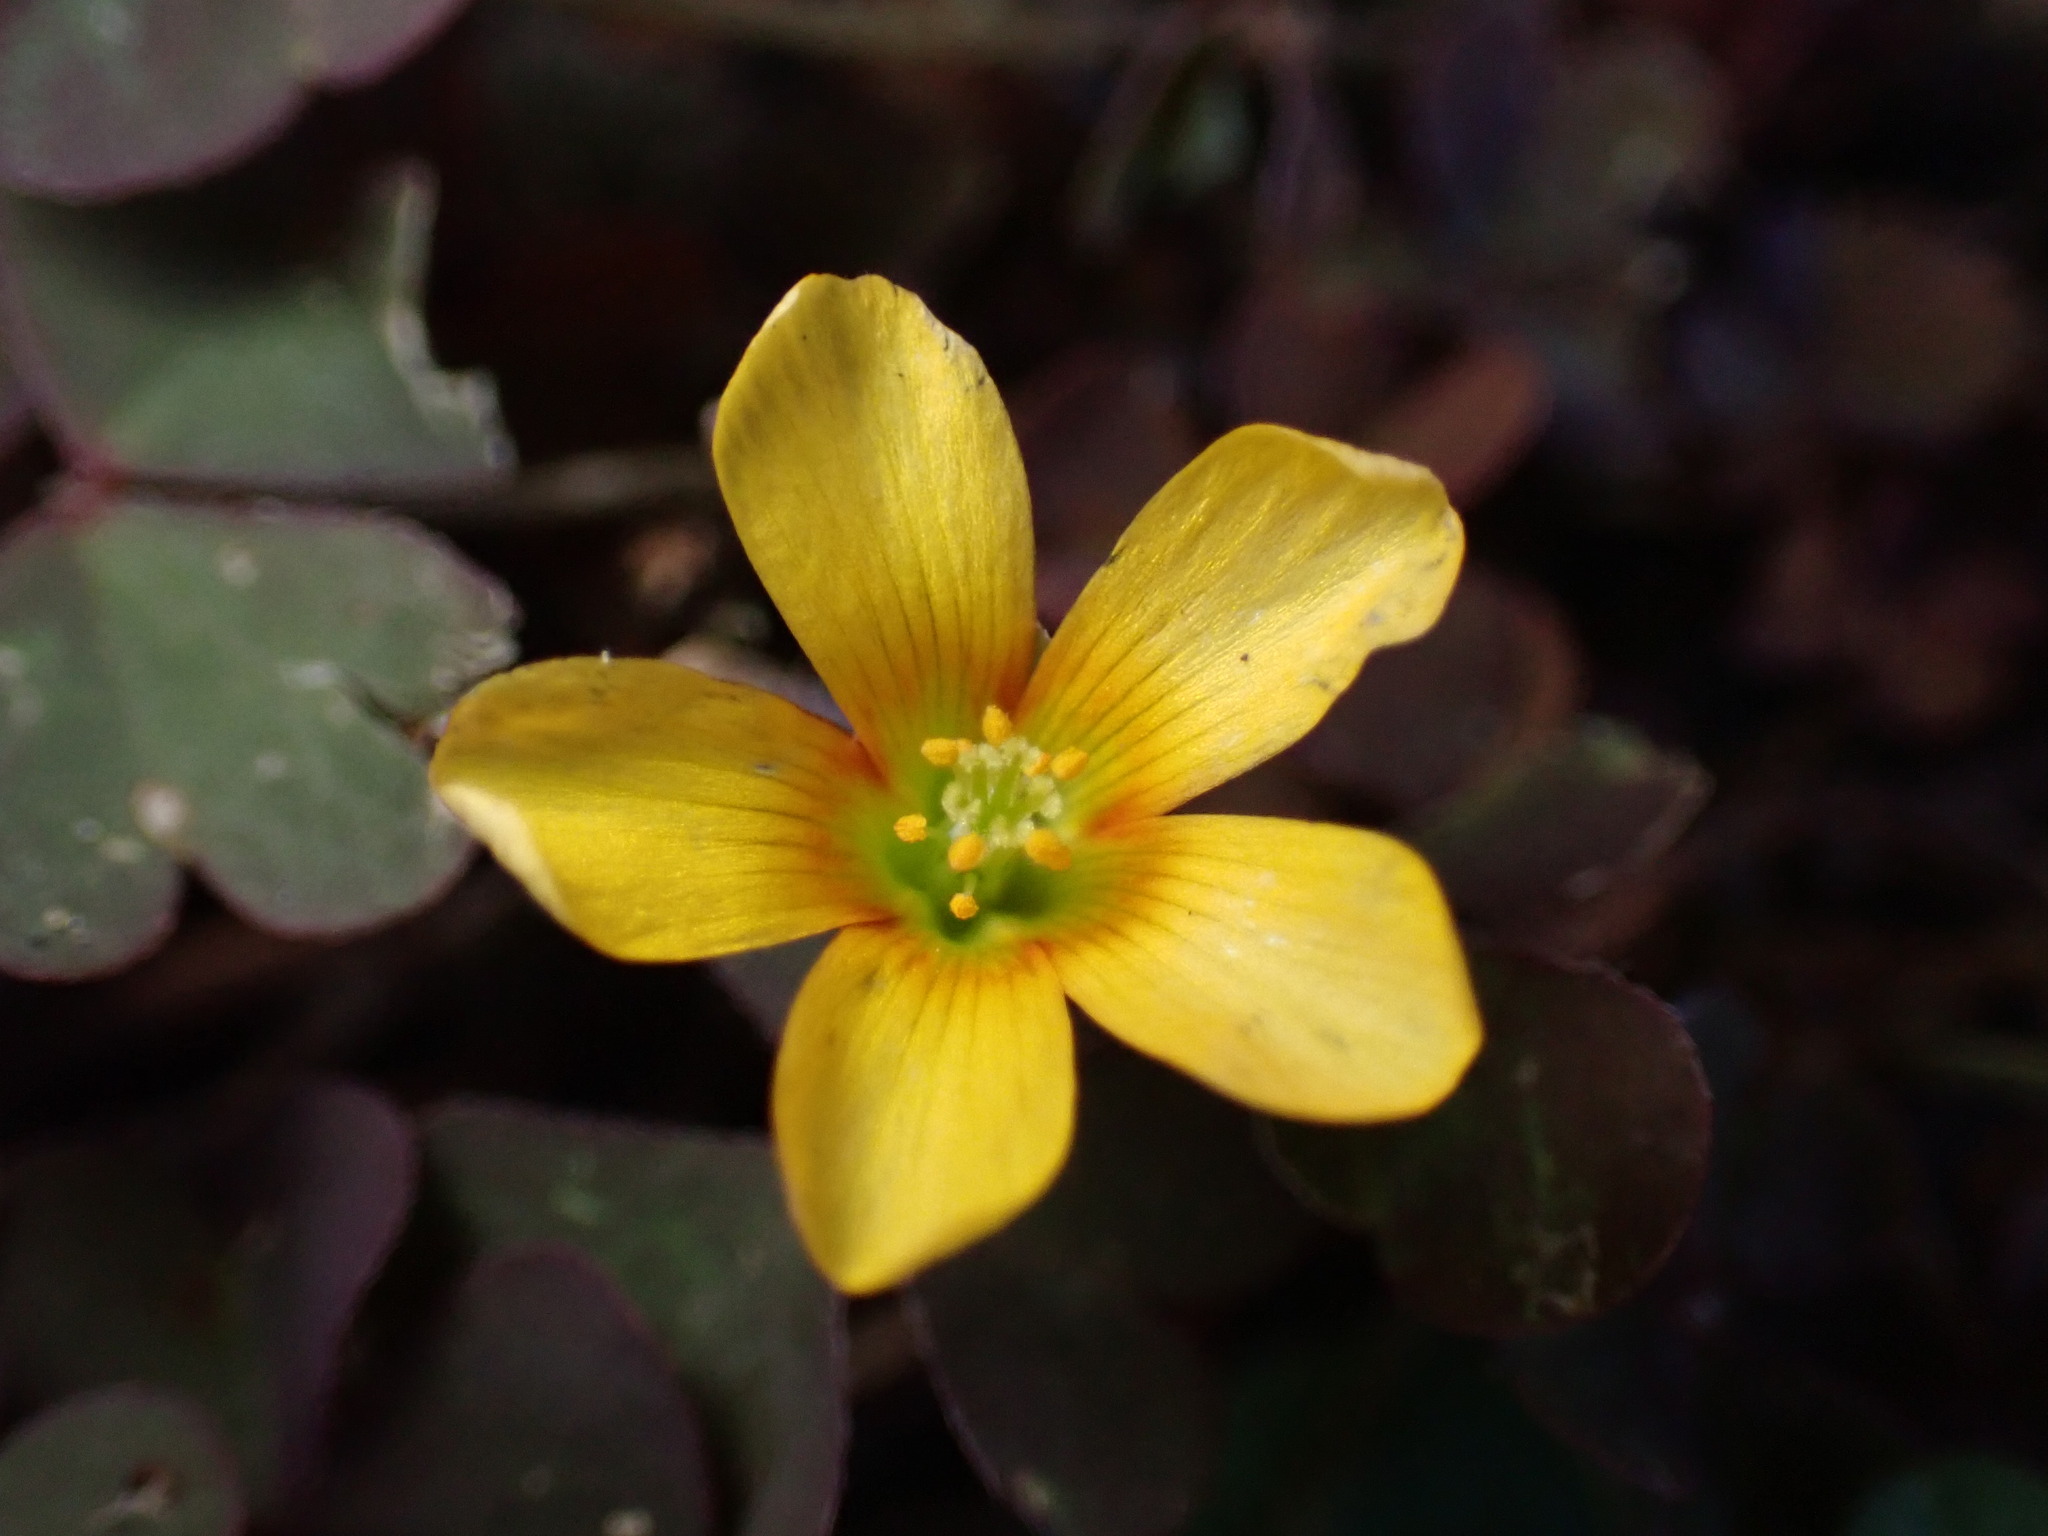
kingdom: Plantae
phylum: Tracheophyta
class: Magnoliopsida
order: Oxalidales
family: Oxalidaceae
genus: Oxalis
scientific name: Oxalis corniculata
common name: Procumbent yellow-sorrel
